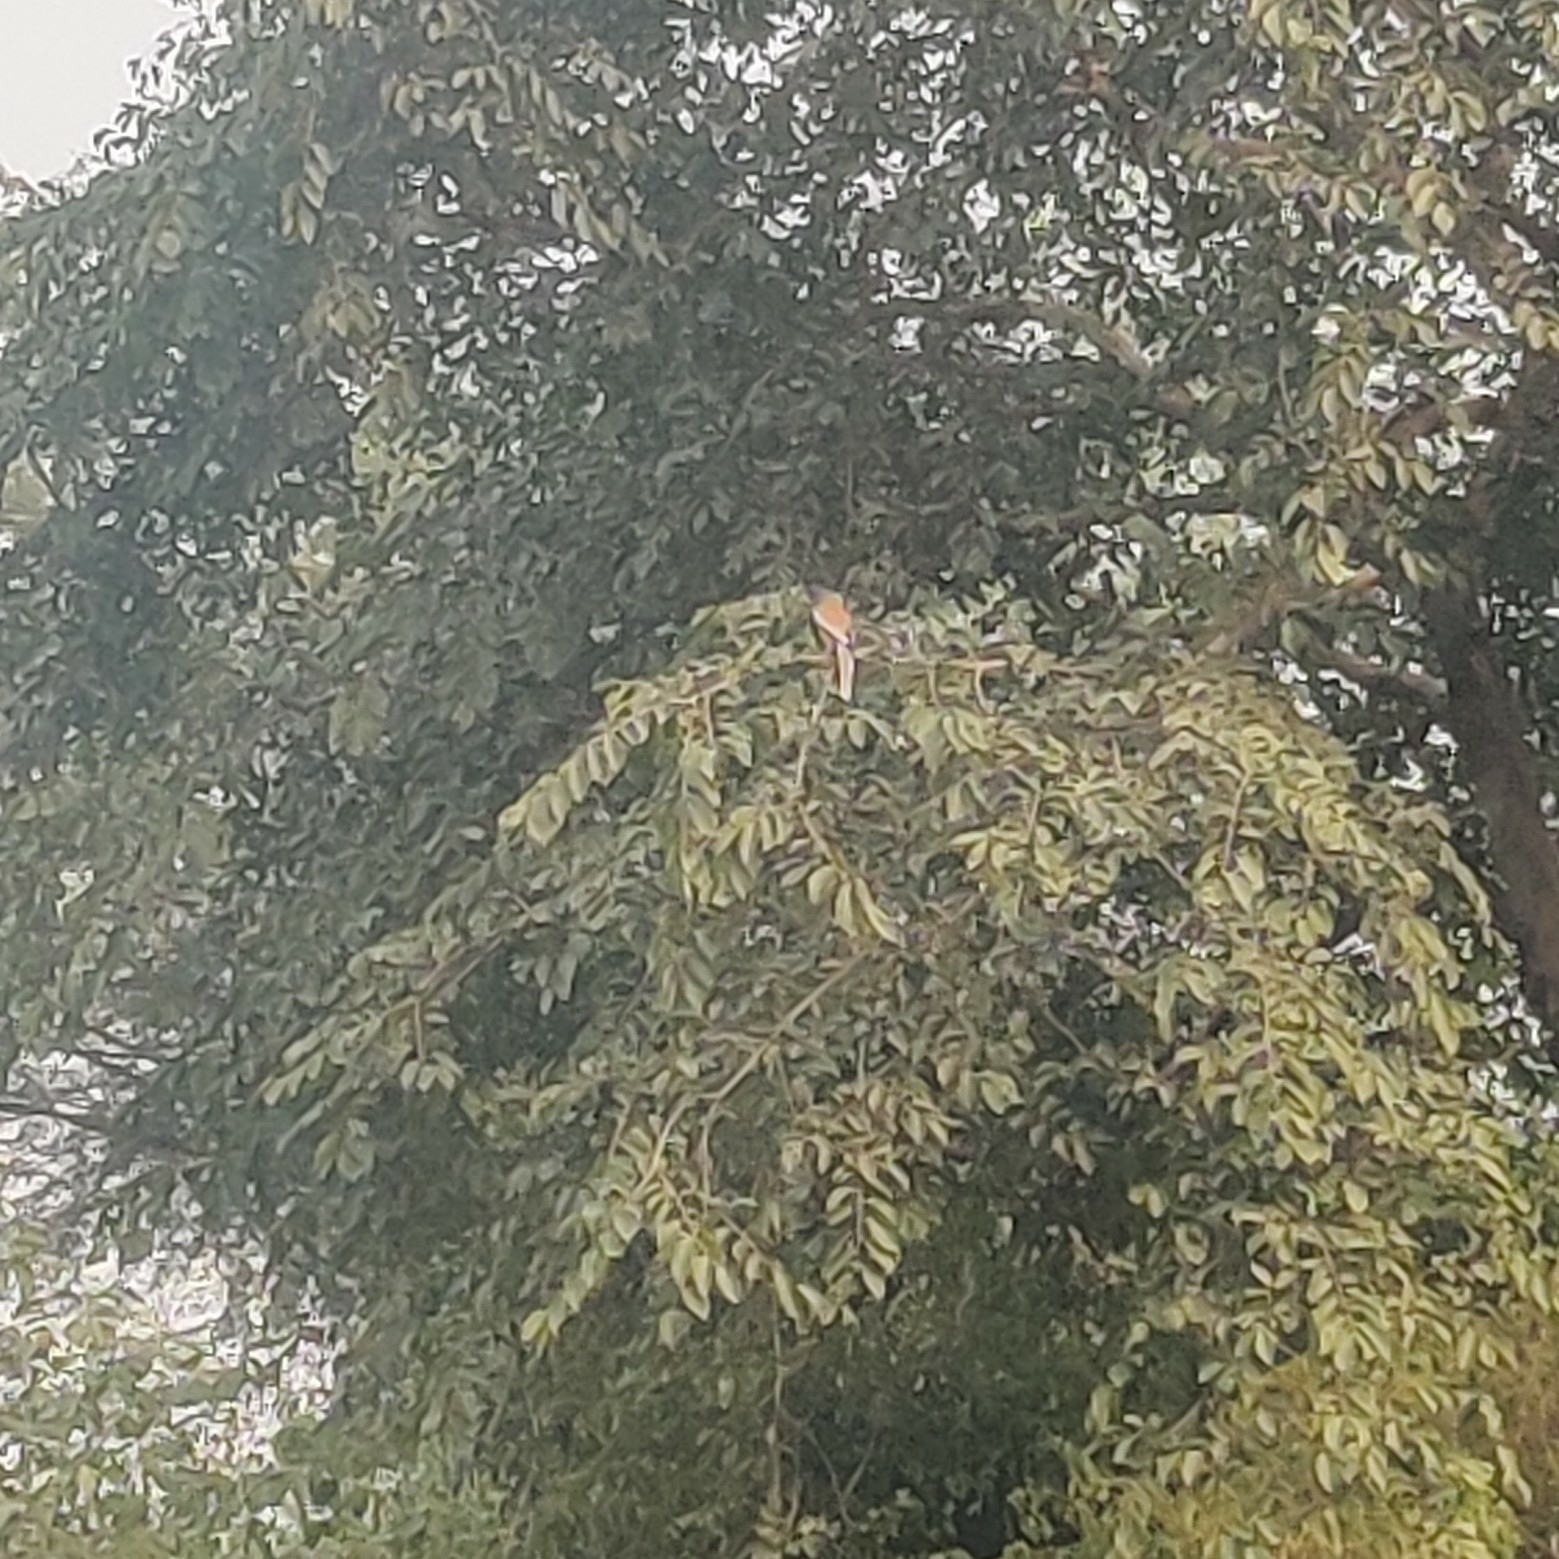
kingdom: Animalia
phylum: Chordata
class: Aves
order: Passeriformes
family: Corvidae
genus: Dendrocitta
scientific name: Dendrocitta vagabunda
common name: Rufous treepie
